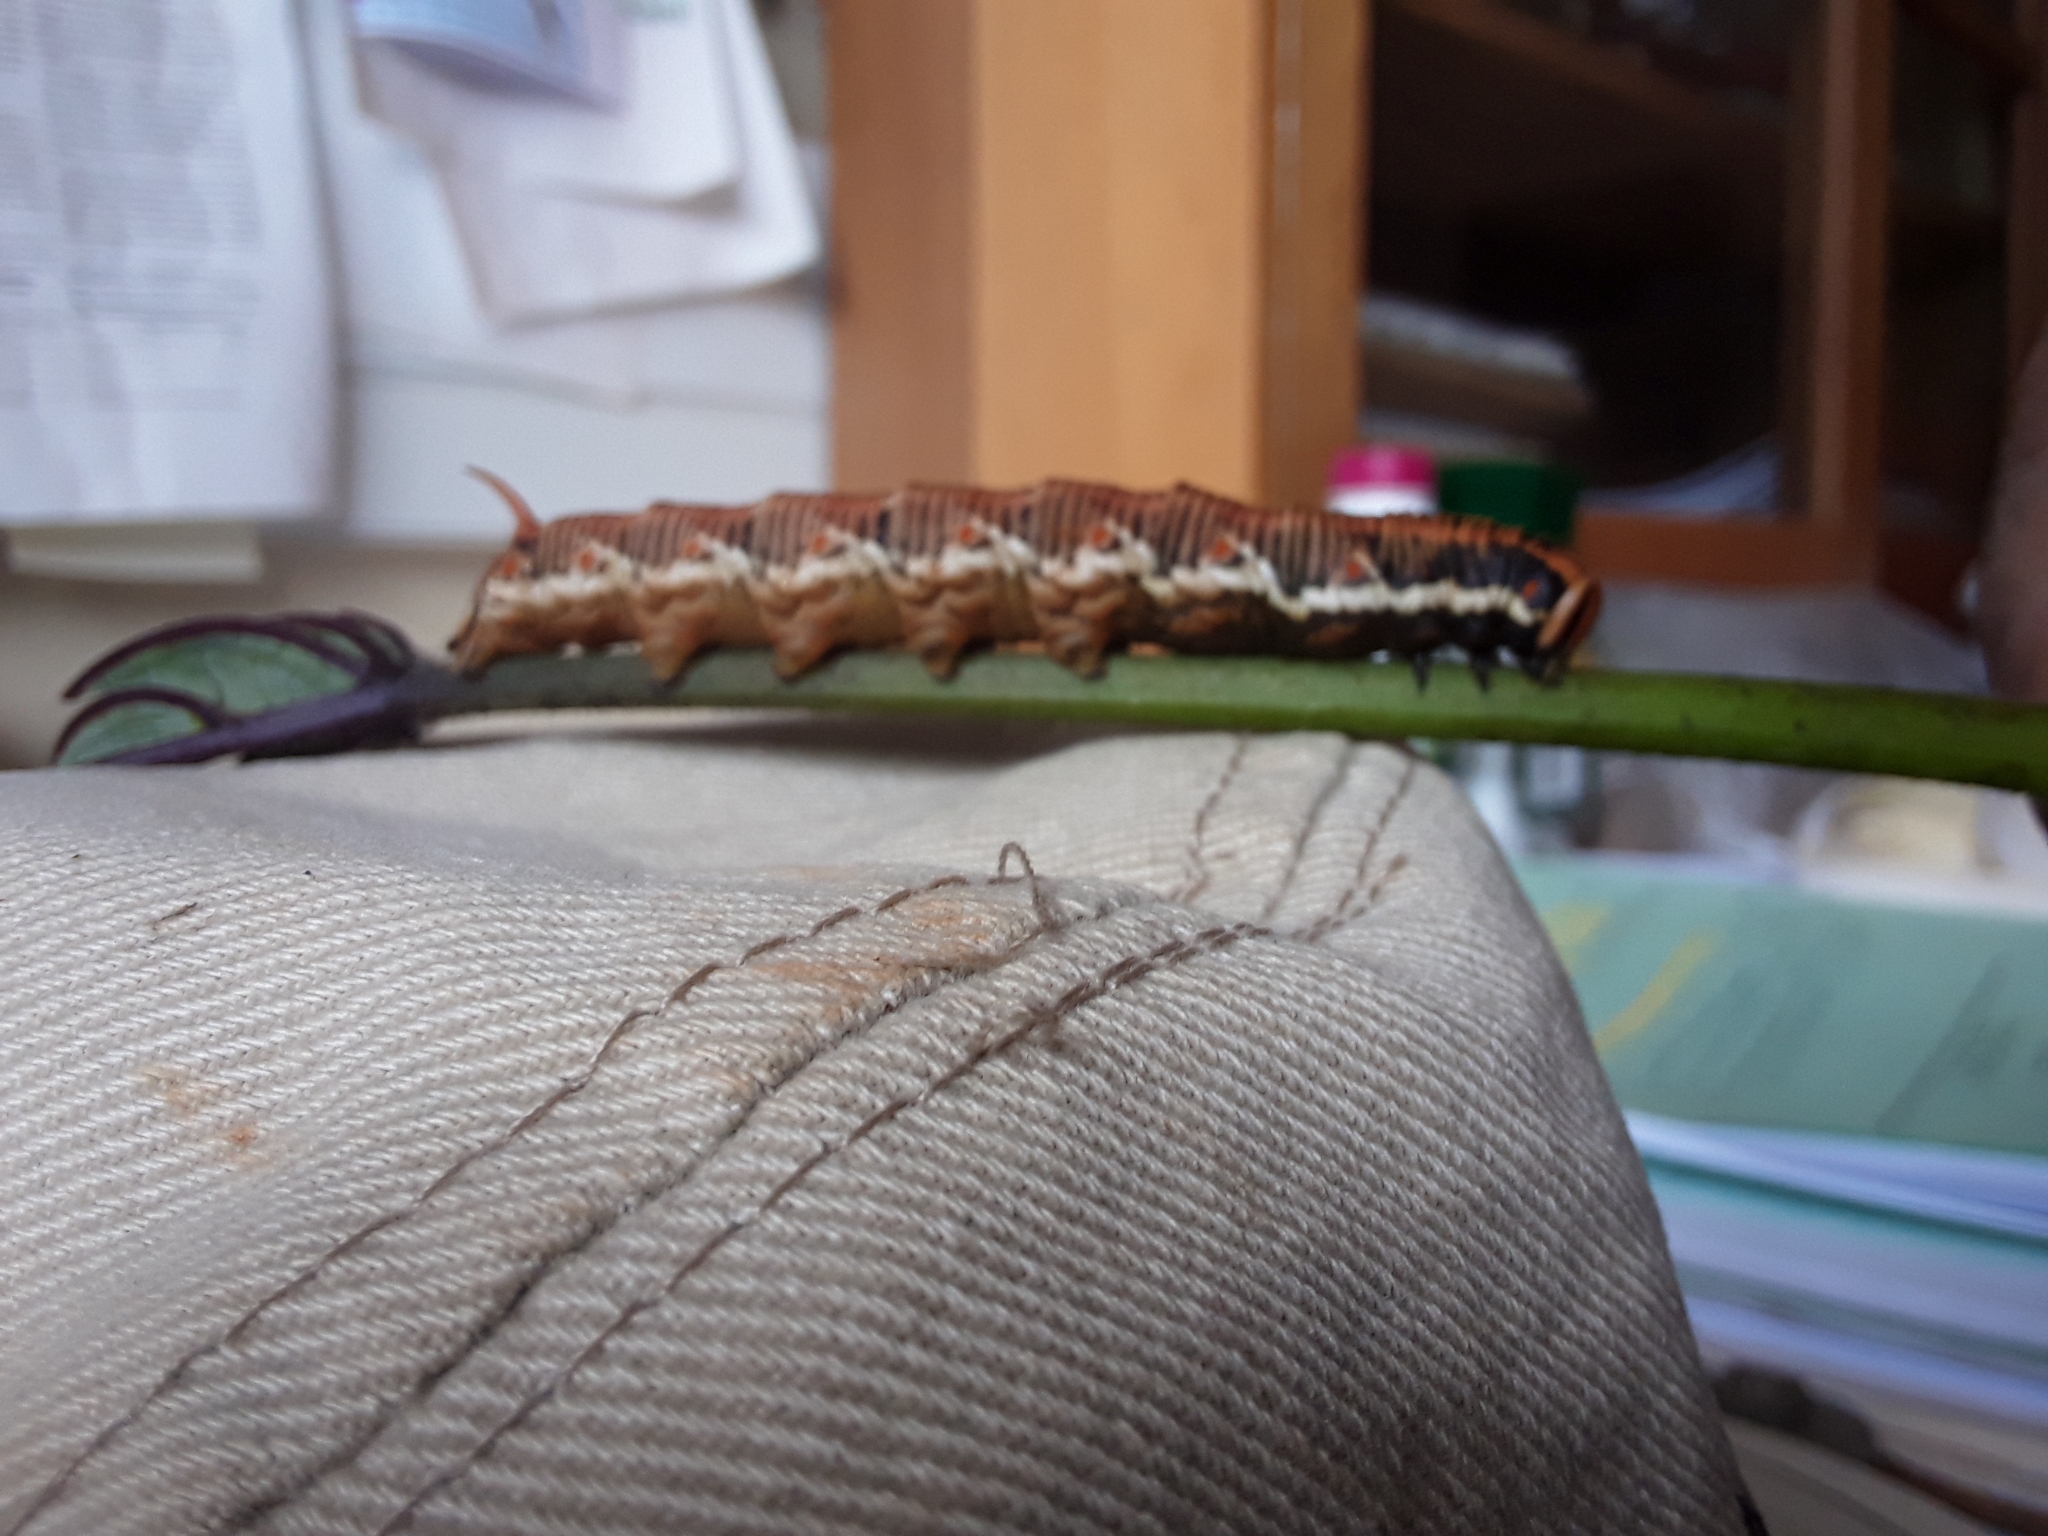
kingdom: Animalia
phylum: Arthropoda
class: Insecta
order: Lepidoptera
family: Sphingidae
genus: Agrius
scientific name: Agrius convolvuli
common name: Convolvulus hawkmoth
